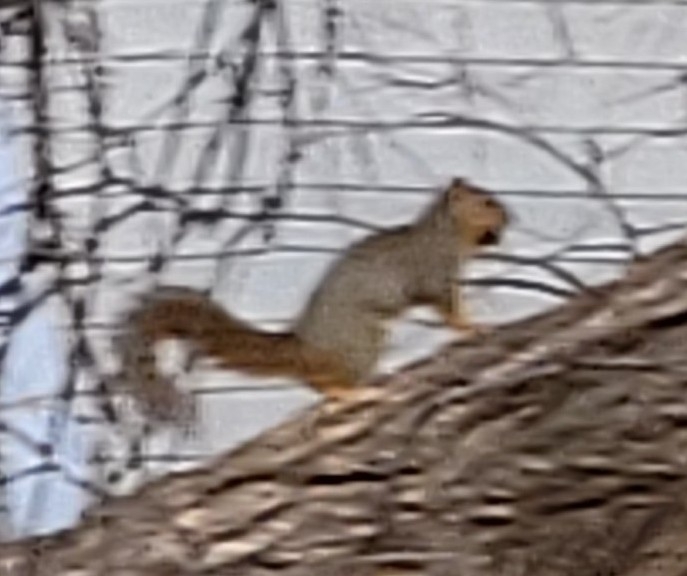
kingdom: Animalia
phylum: Chordata
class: Mammalia
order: Rodentia
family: Sciuridae
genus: Sciurus
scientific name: Sciurus niger
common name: Fox squirrel
